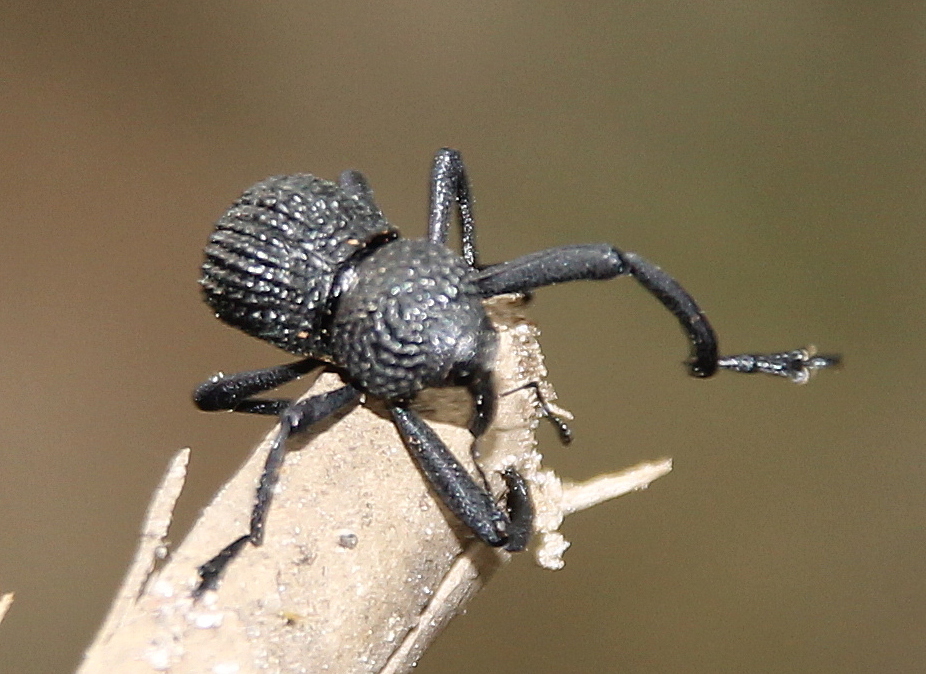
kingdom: Animalia
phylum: Arthropoda
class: Insecta
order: Coleoptera
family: Curculionidae
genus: Rhyephenes
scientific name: Rhyephenes maillei
